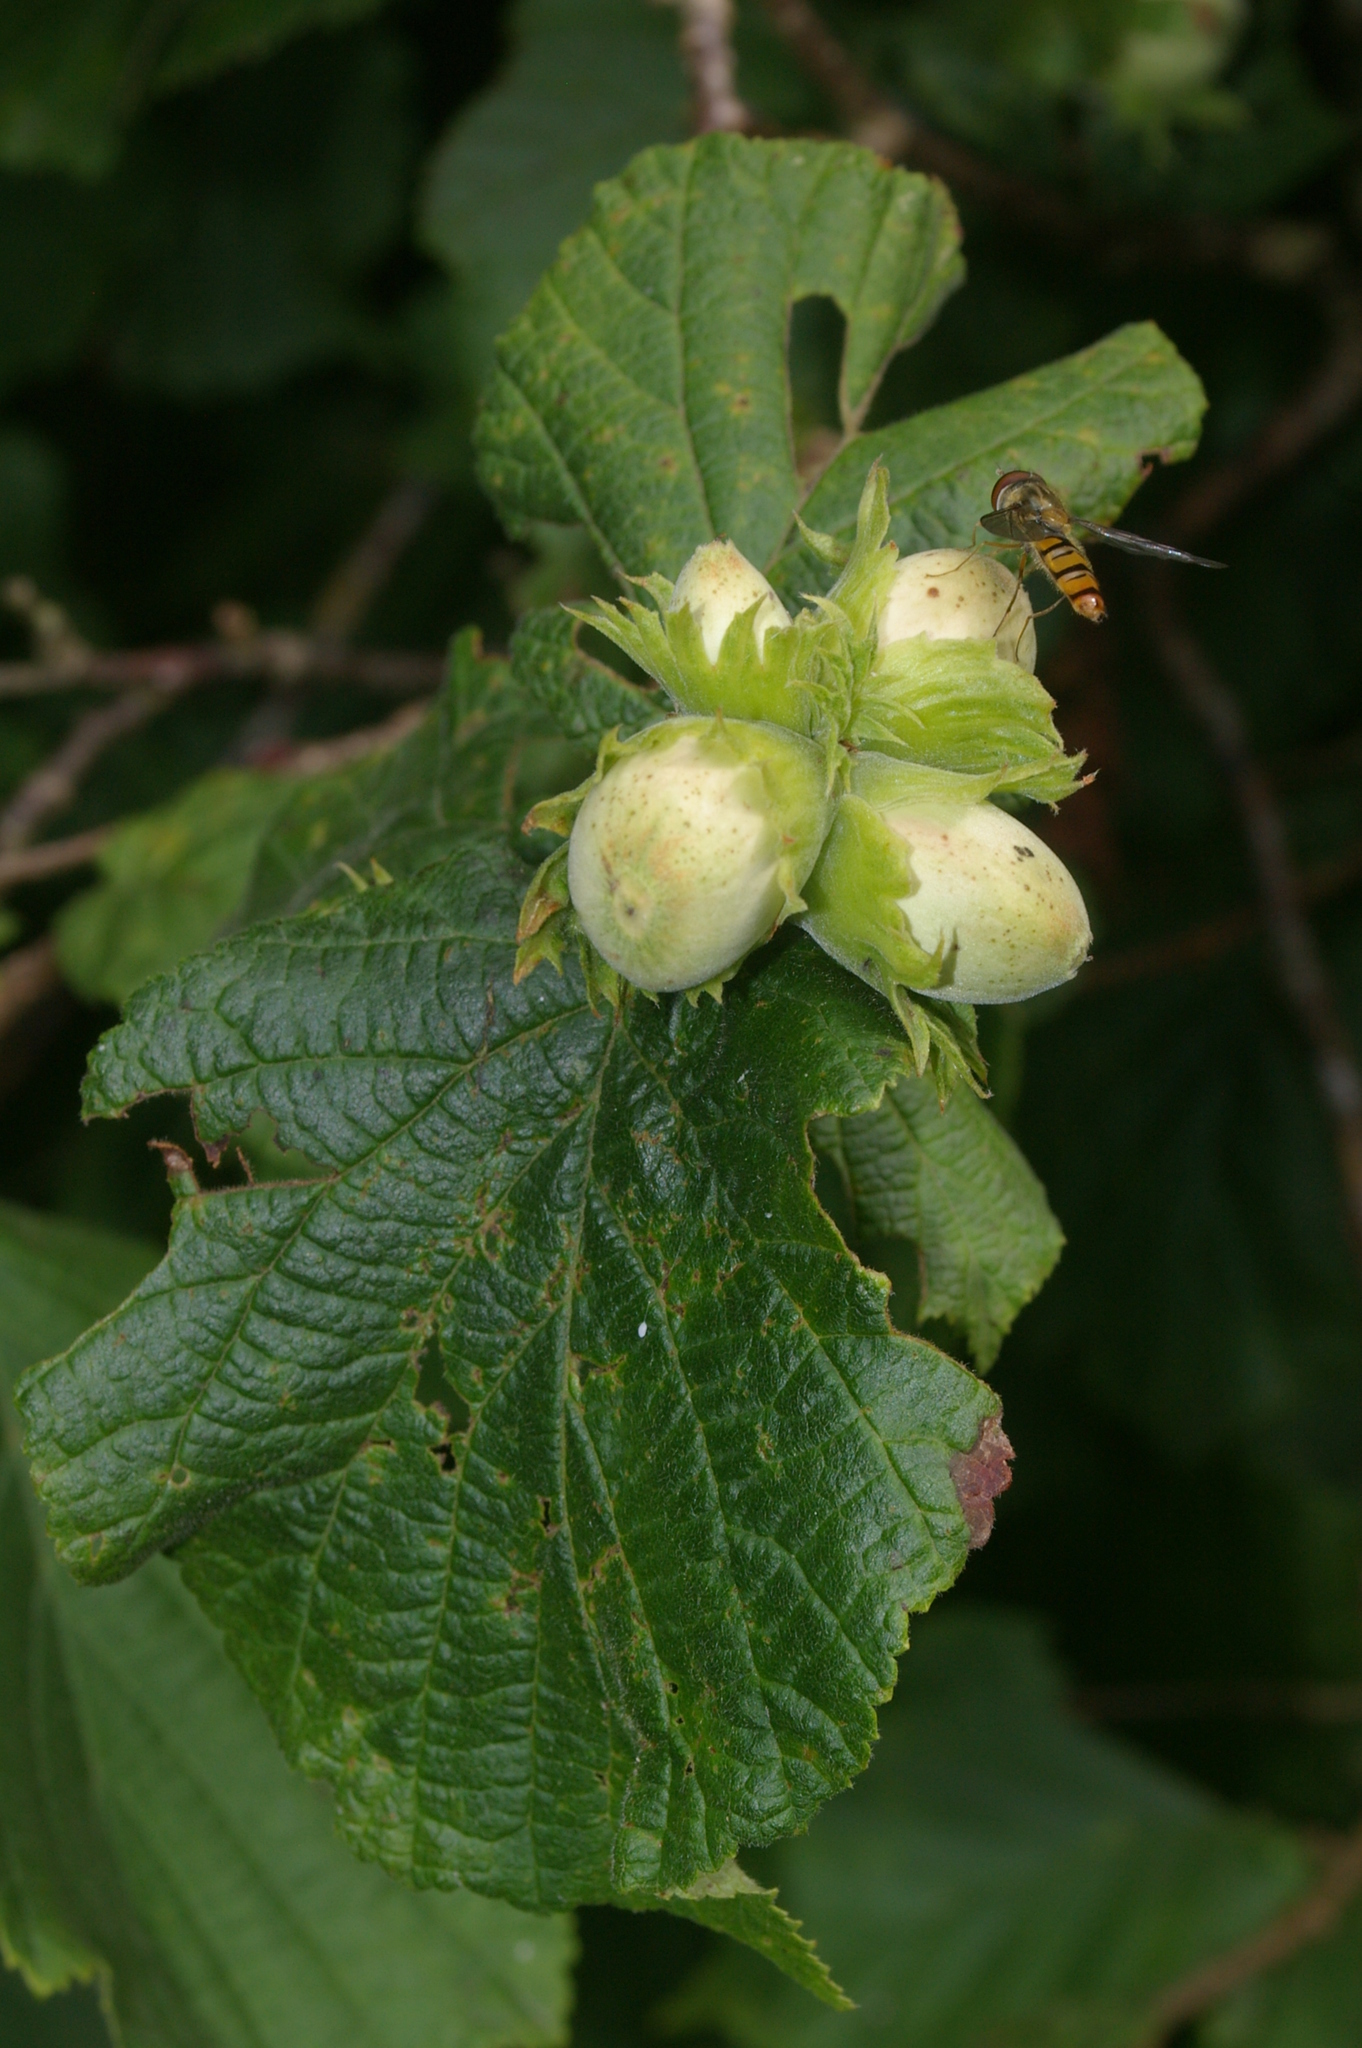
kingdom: Animalia
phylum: Arthropoda
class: Insecta
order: Diptera
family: Syrphidae
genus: Episyrphus
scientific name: Episyrphus balteatus
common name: Marmalade hoverfly
